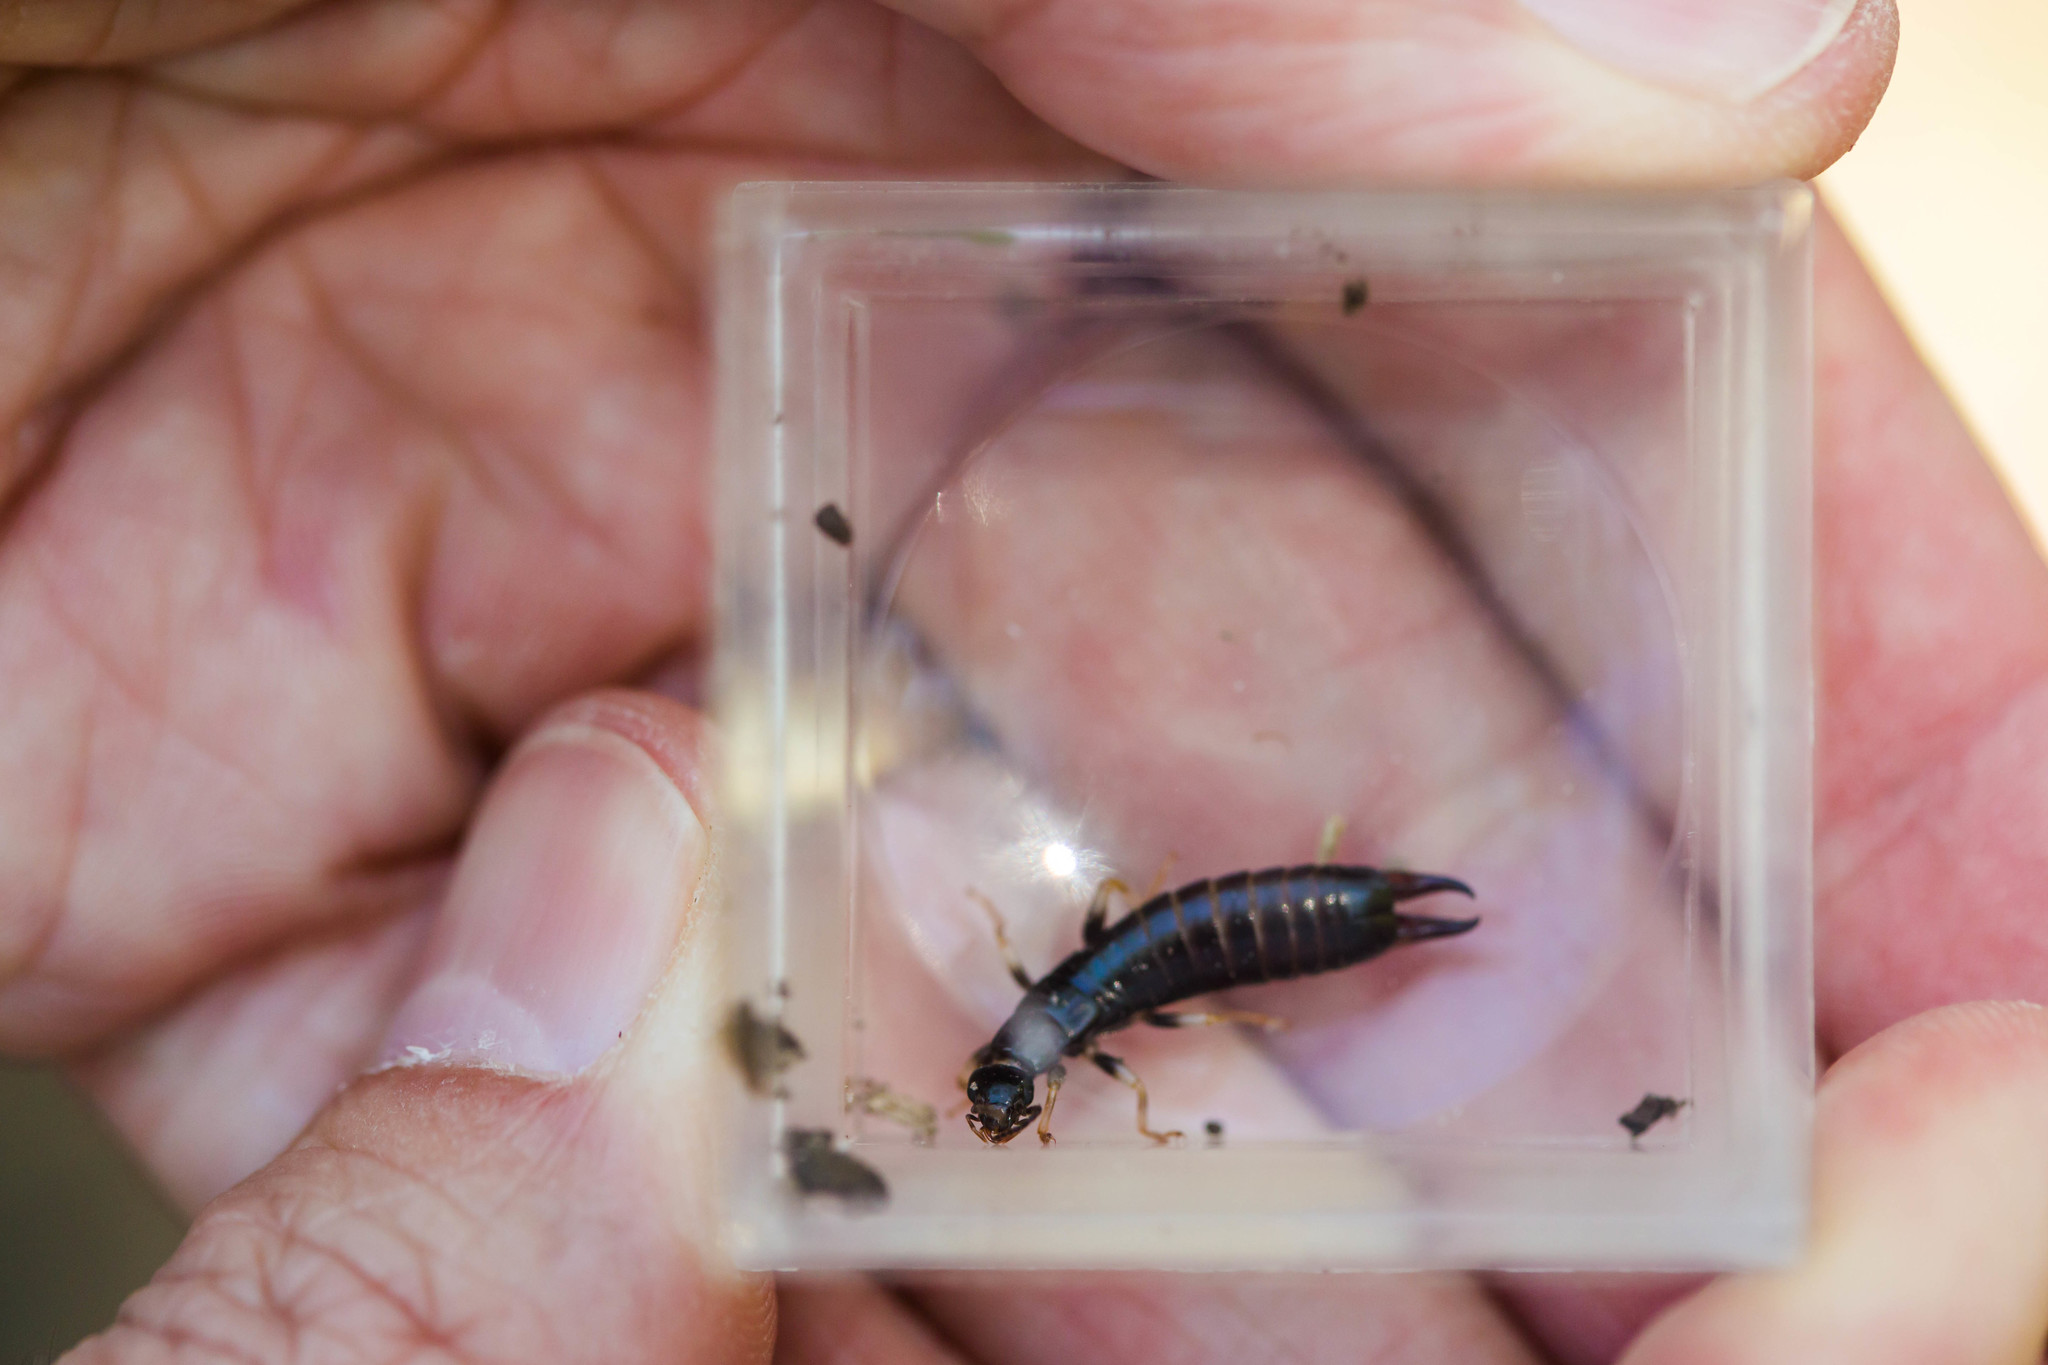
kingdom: Animalia
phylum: Arthropoda
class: Insecta
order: Dermaptera
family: Anisolabididae
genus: Euborellia
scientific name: Euborellia annulipes
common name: Ringlegged earwig
